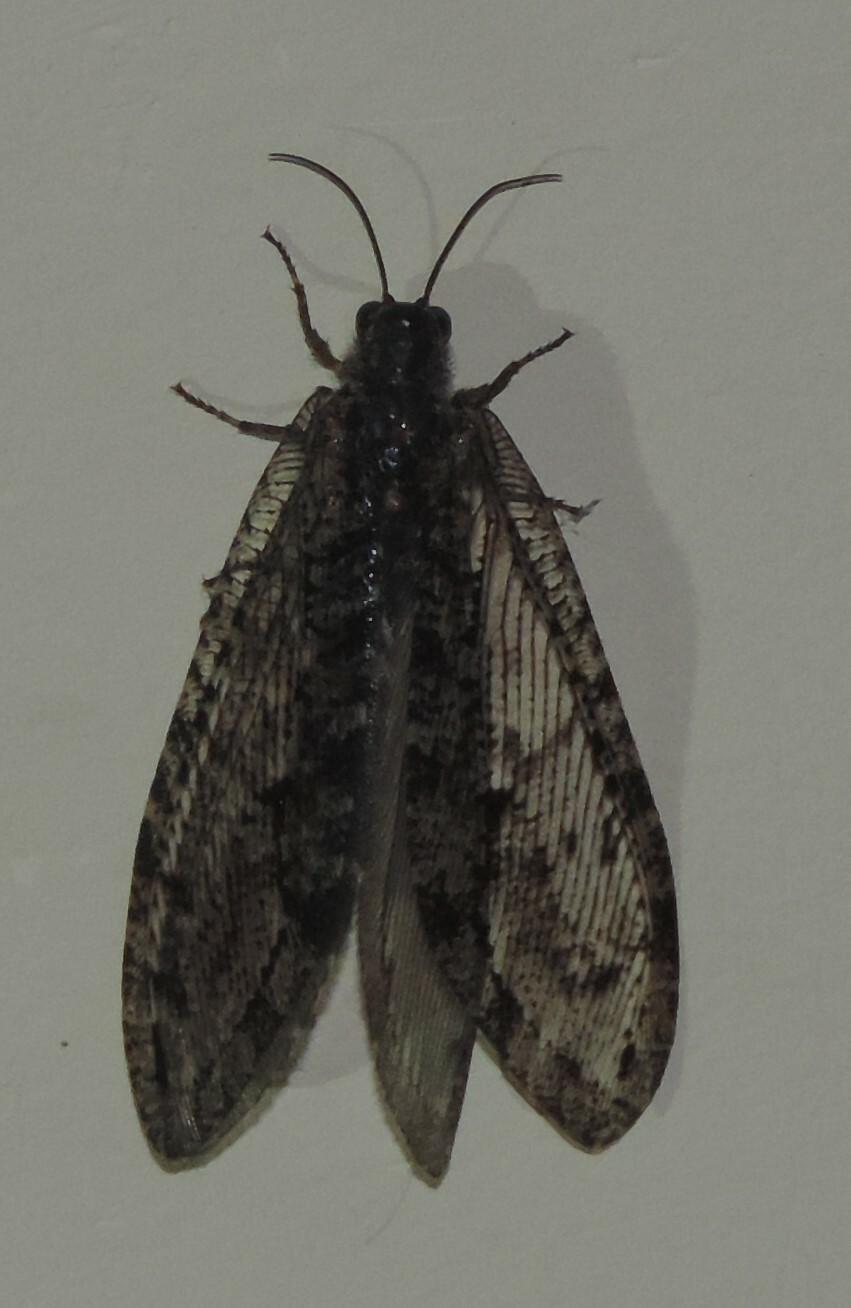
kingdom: Animalia
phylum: Arthropoda
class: Insecta
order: Neuroptera
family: Ithonidae
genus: Polystoechotes
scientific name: Polystoechotes punctata
